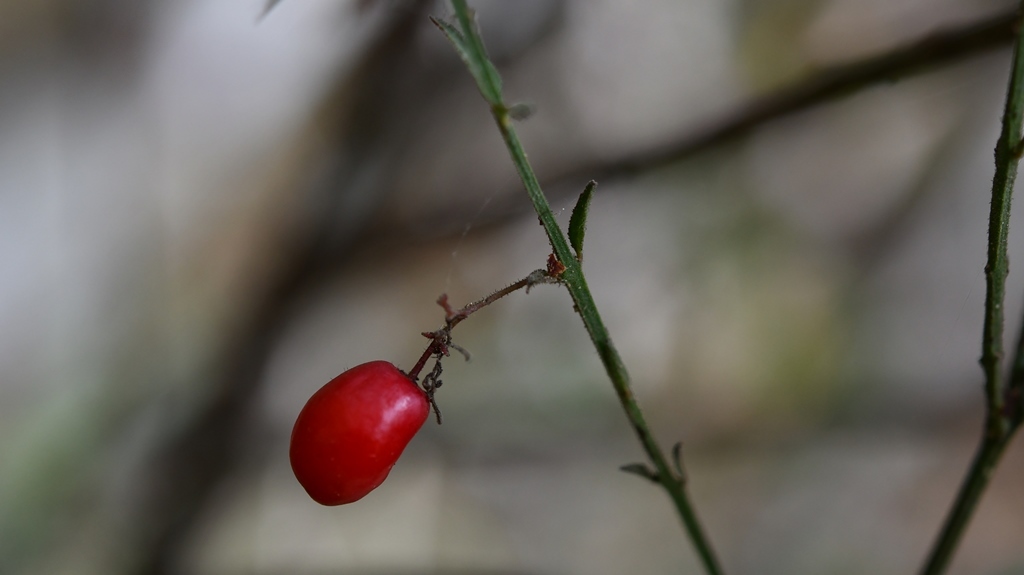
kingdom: Plantae
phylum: Tracheophyta
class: Magnoliopsida
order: Celastrales
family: Celastraceae
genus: Crossopetalum
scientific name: Crossopetalum uragoga
